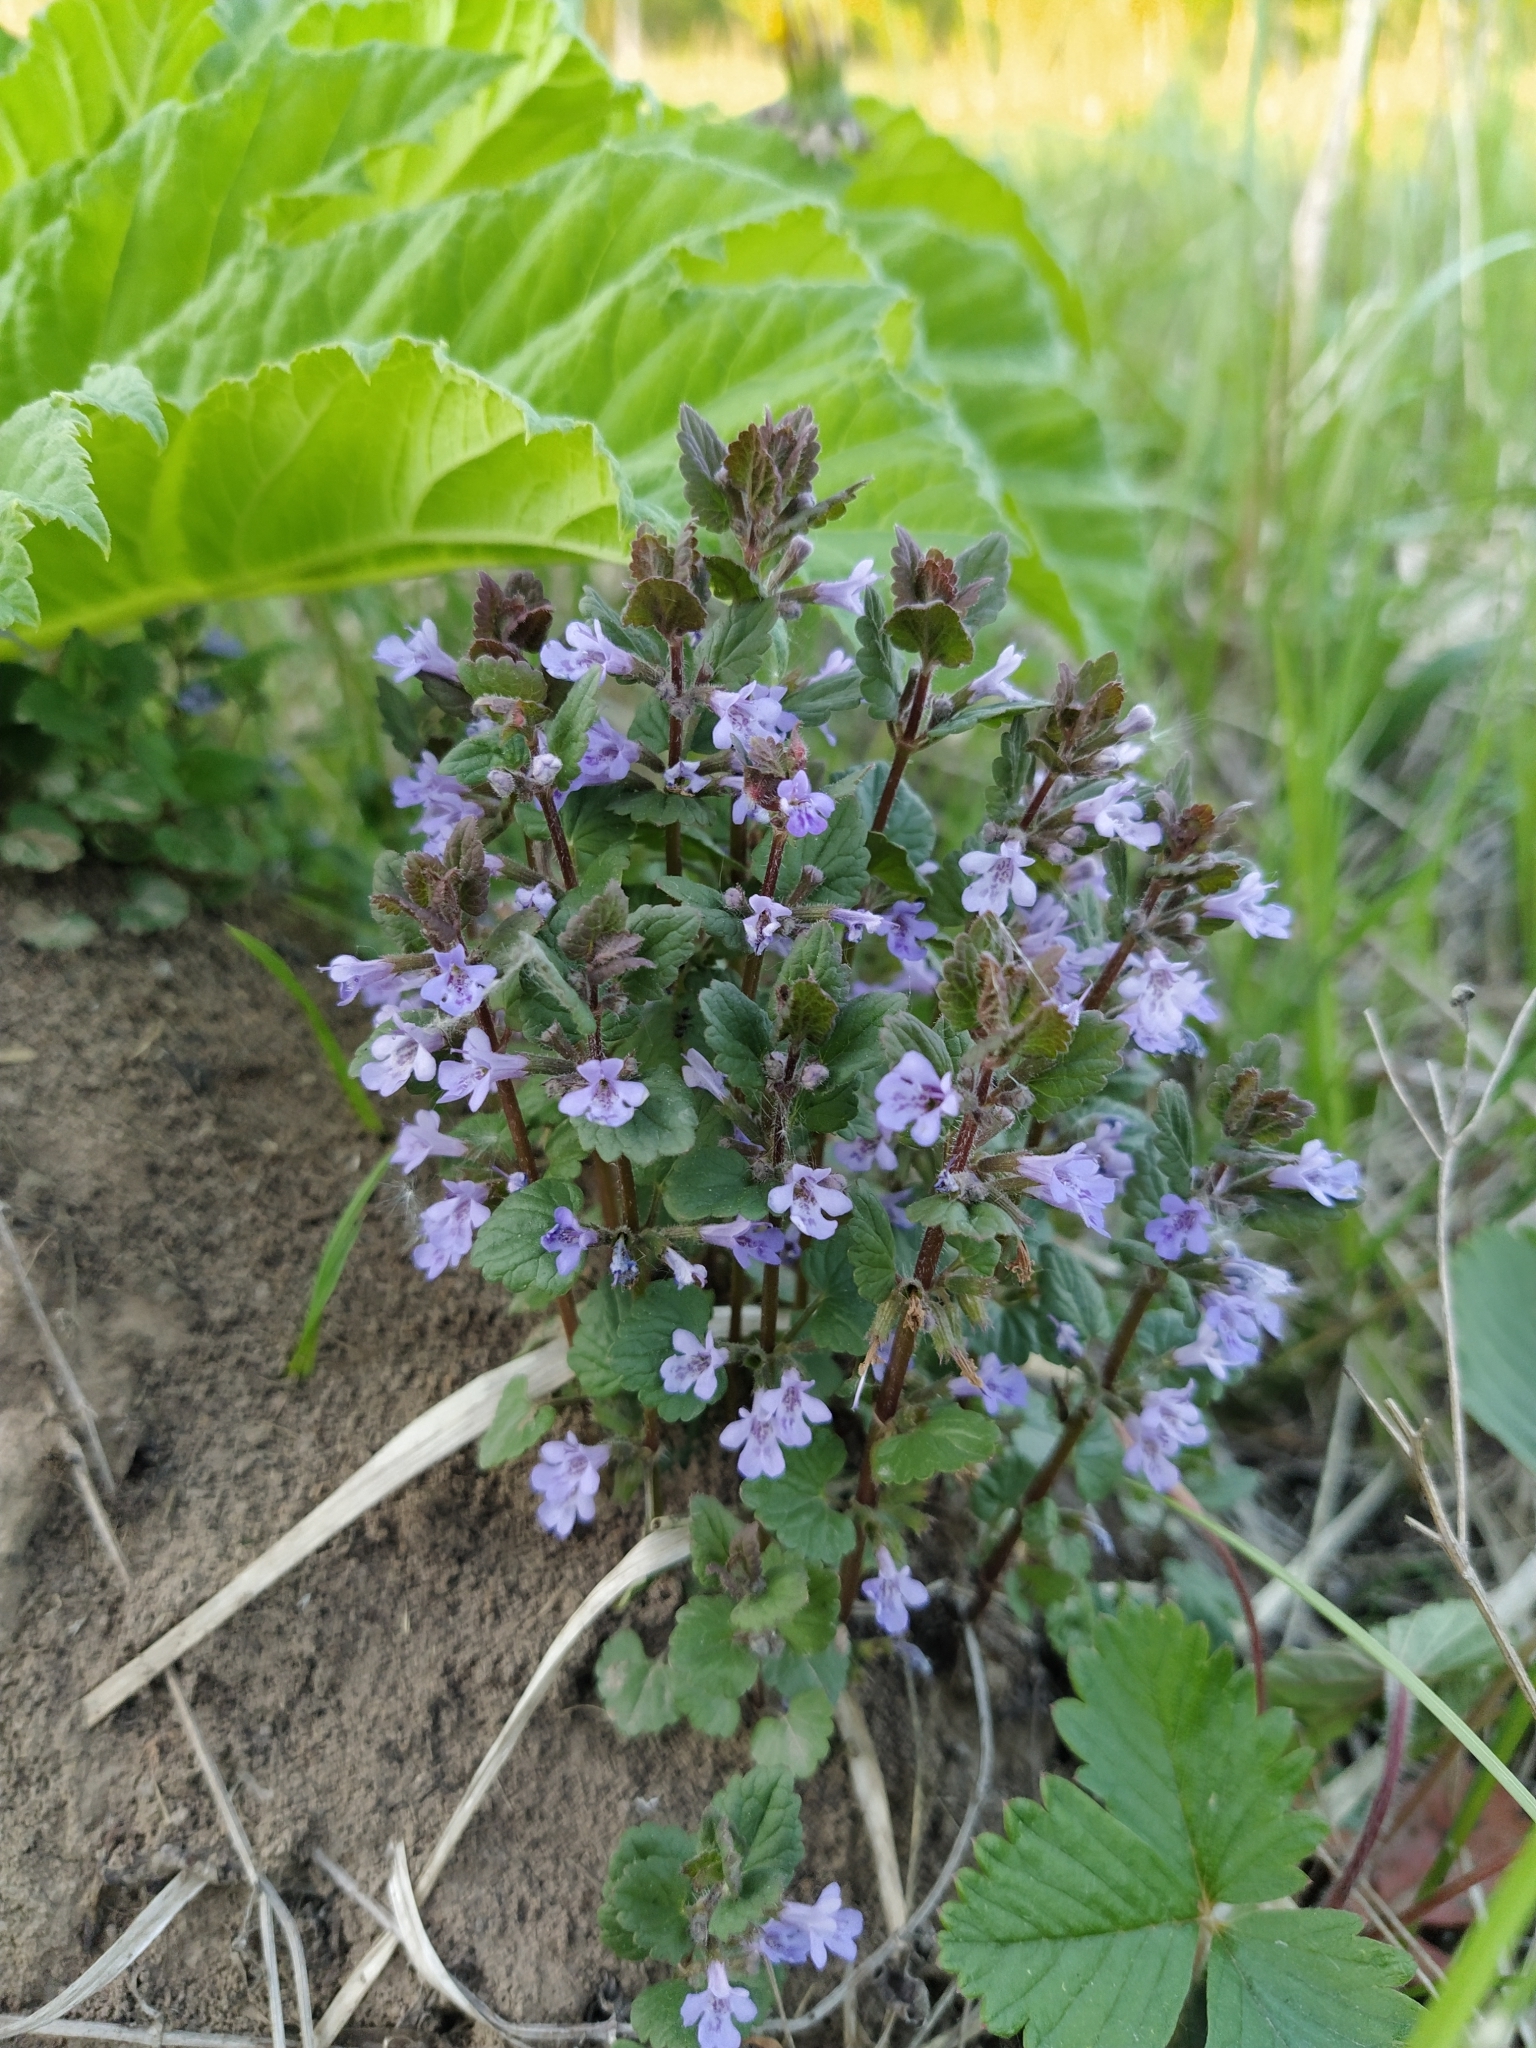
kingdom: Plantae
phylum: Tracheophyta
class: Magnoliopsida
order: Lamiales
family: Lamiaceae
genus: Glechoma
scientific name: Glechoma hederacea
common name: Ground ivy
